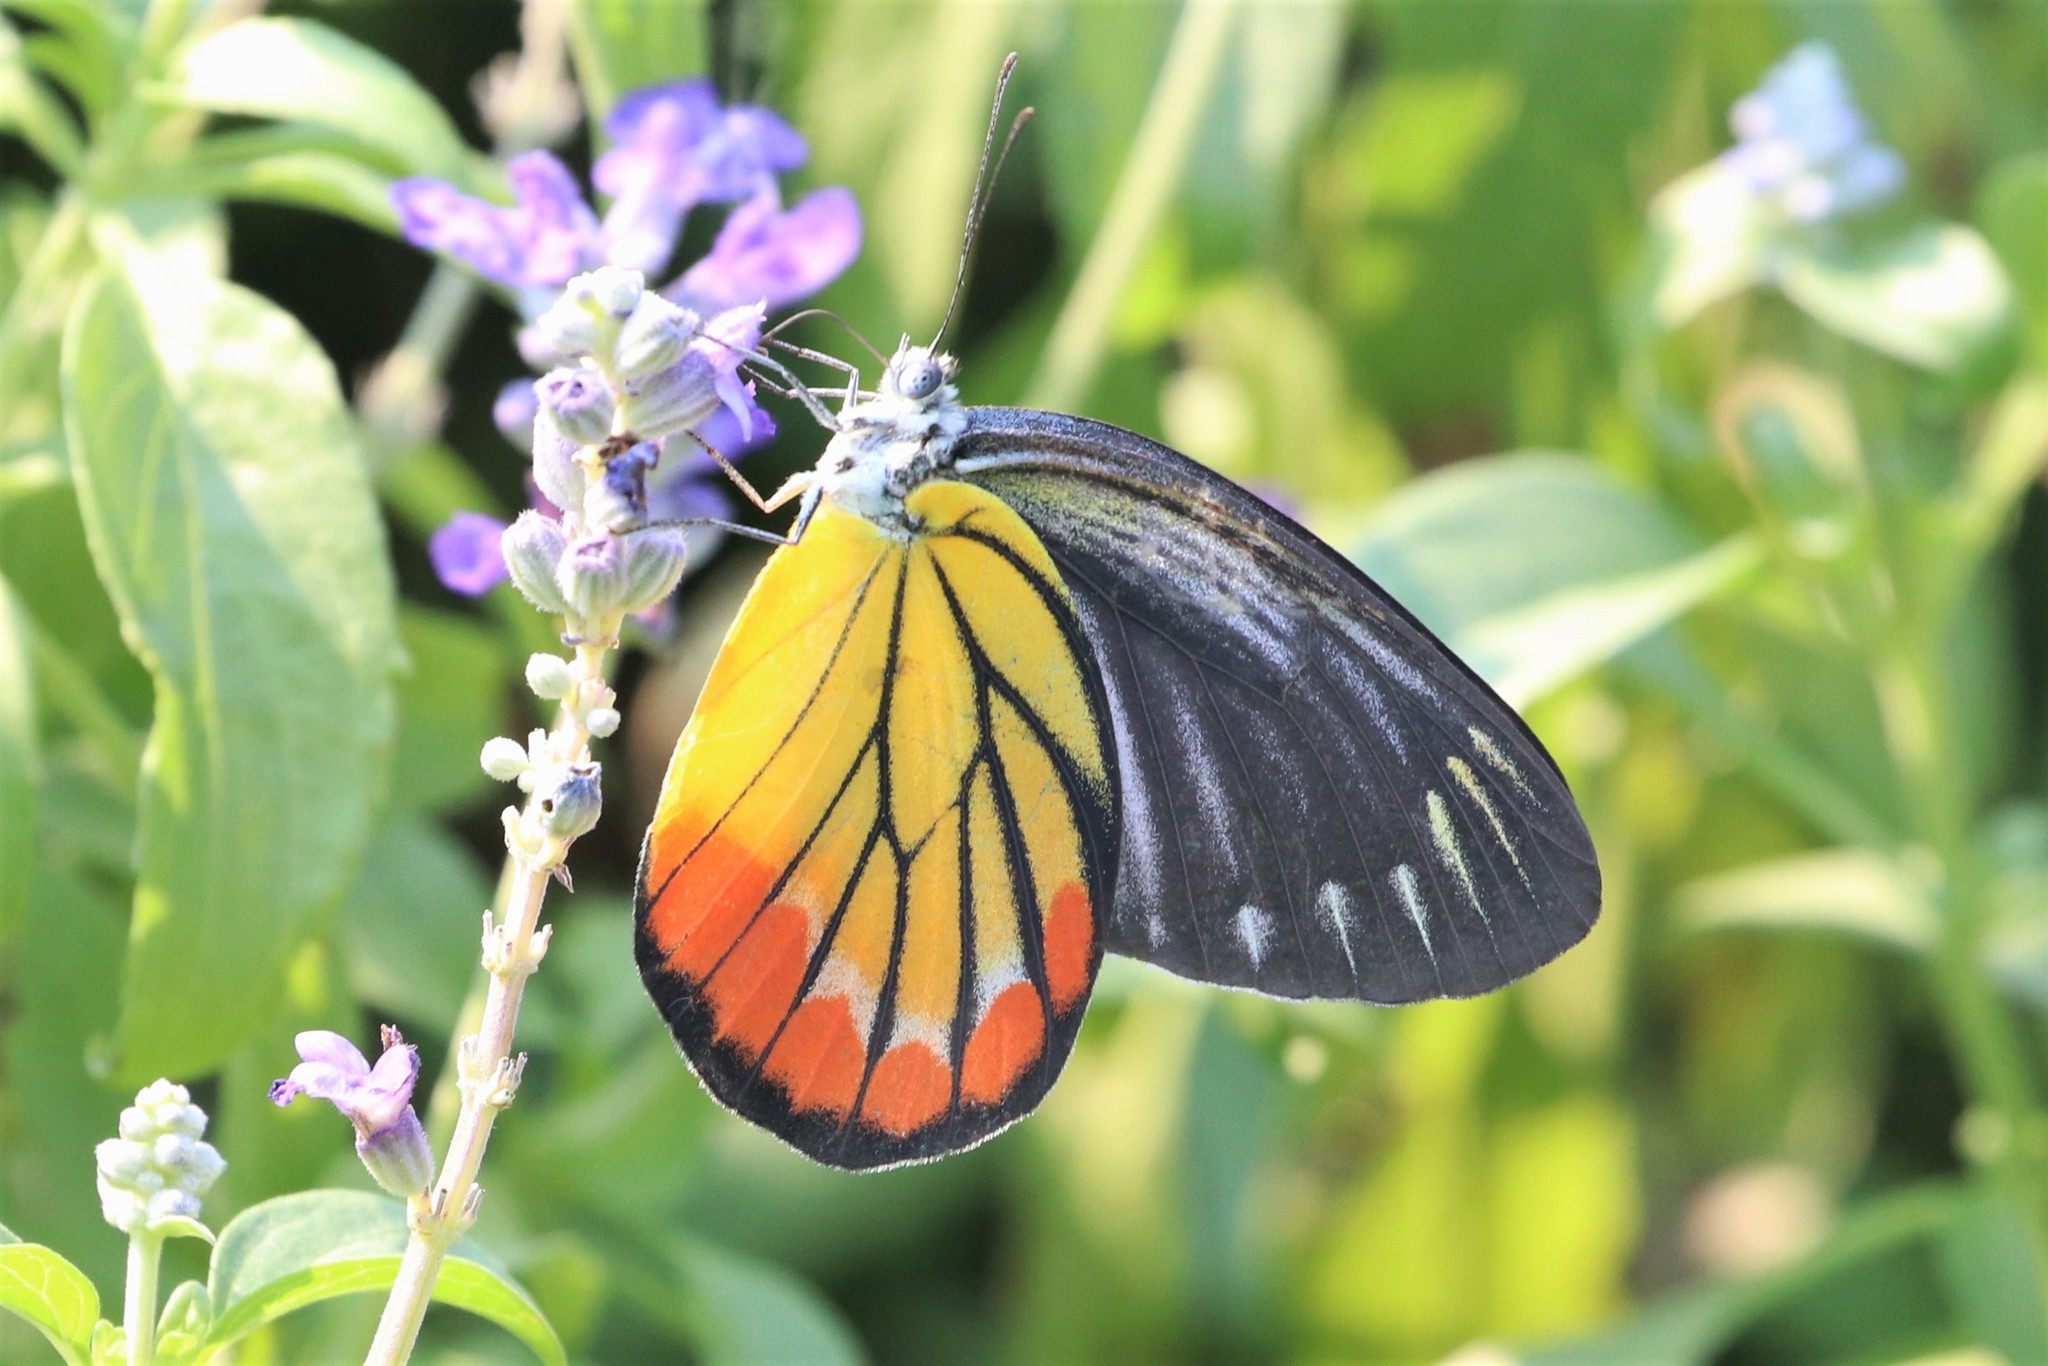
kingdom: Animalia
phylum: Arthropoda
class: Insecta
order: Lepidoptera
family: Pieridae
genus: Delias
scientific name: Delias hyparete
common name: Painted jezebel
